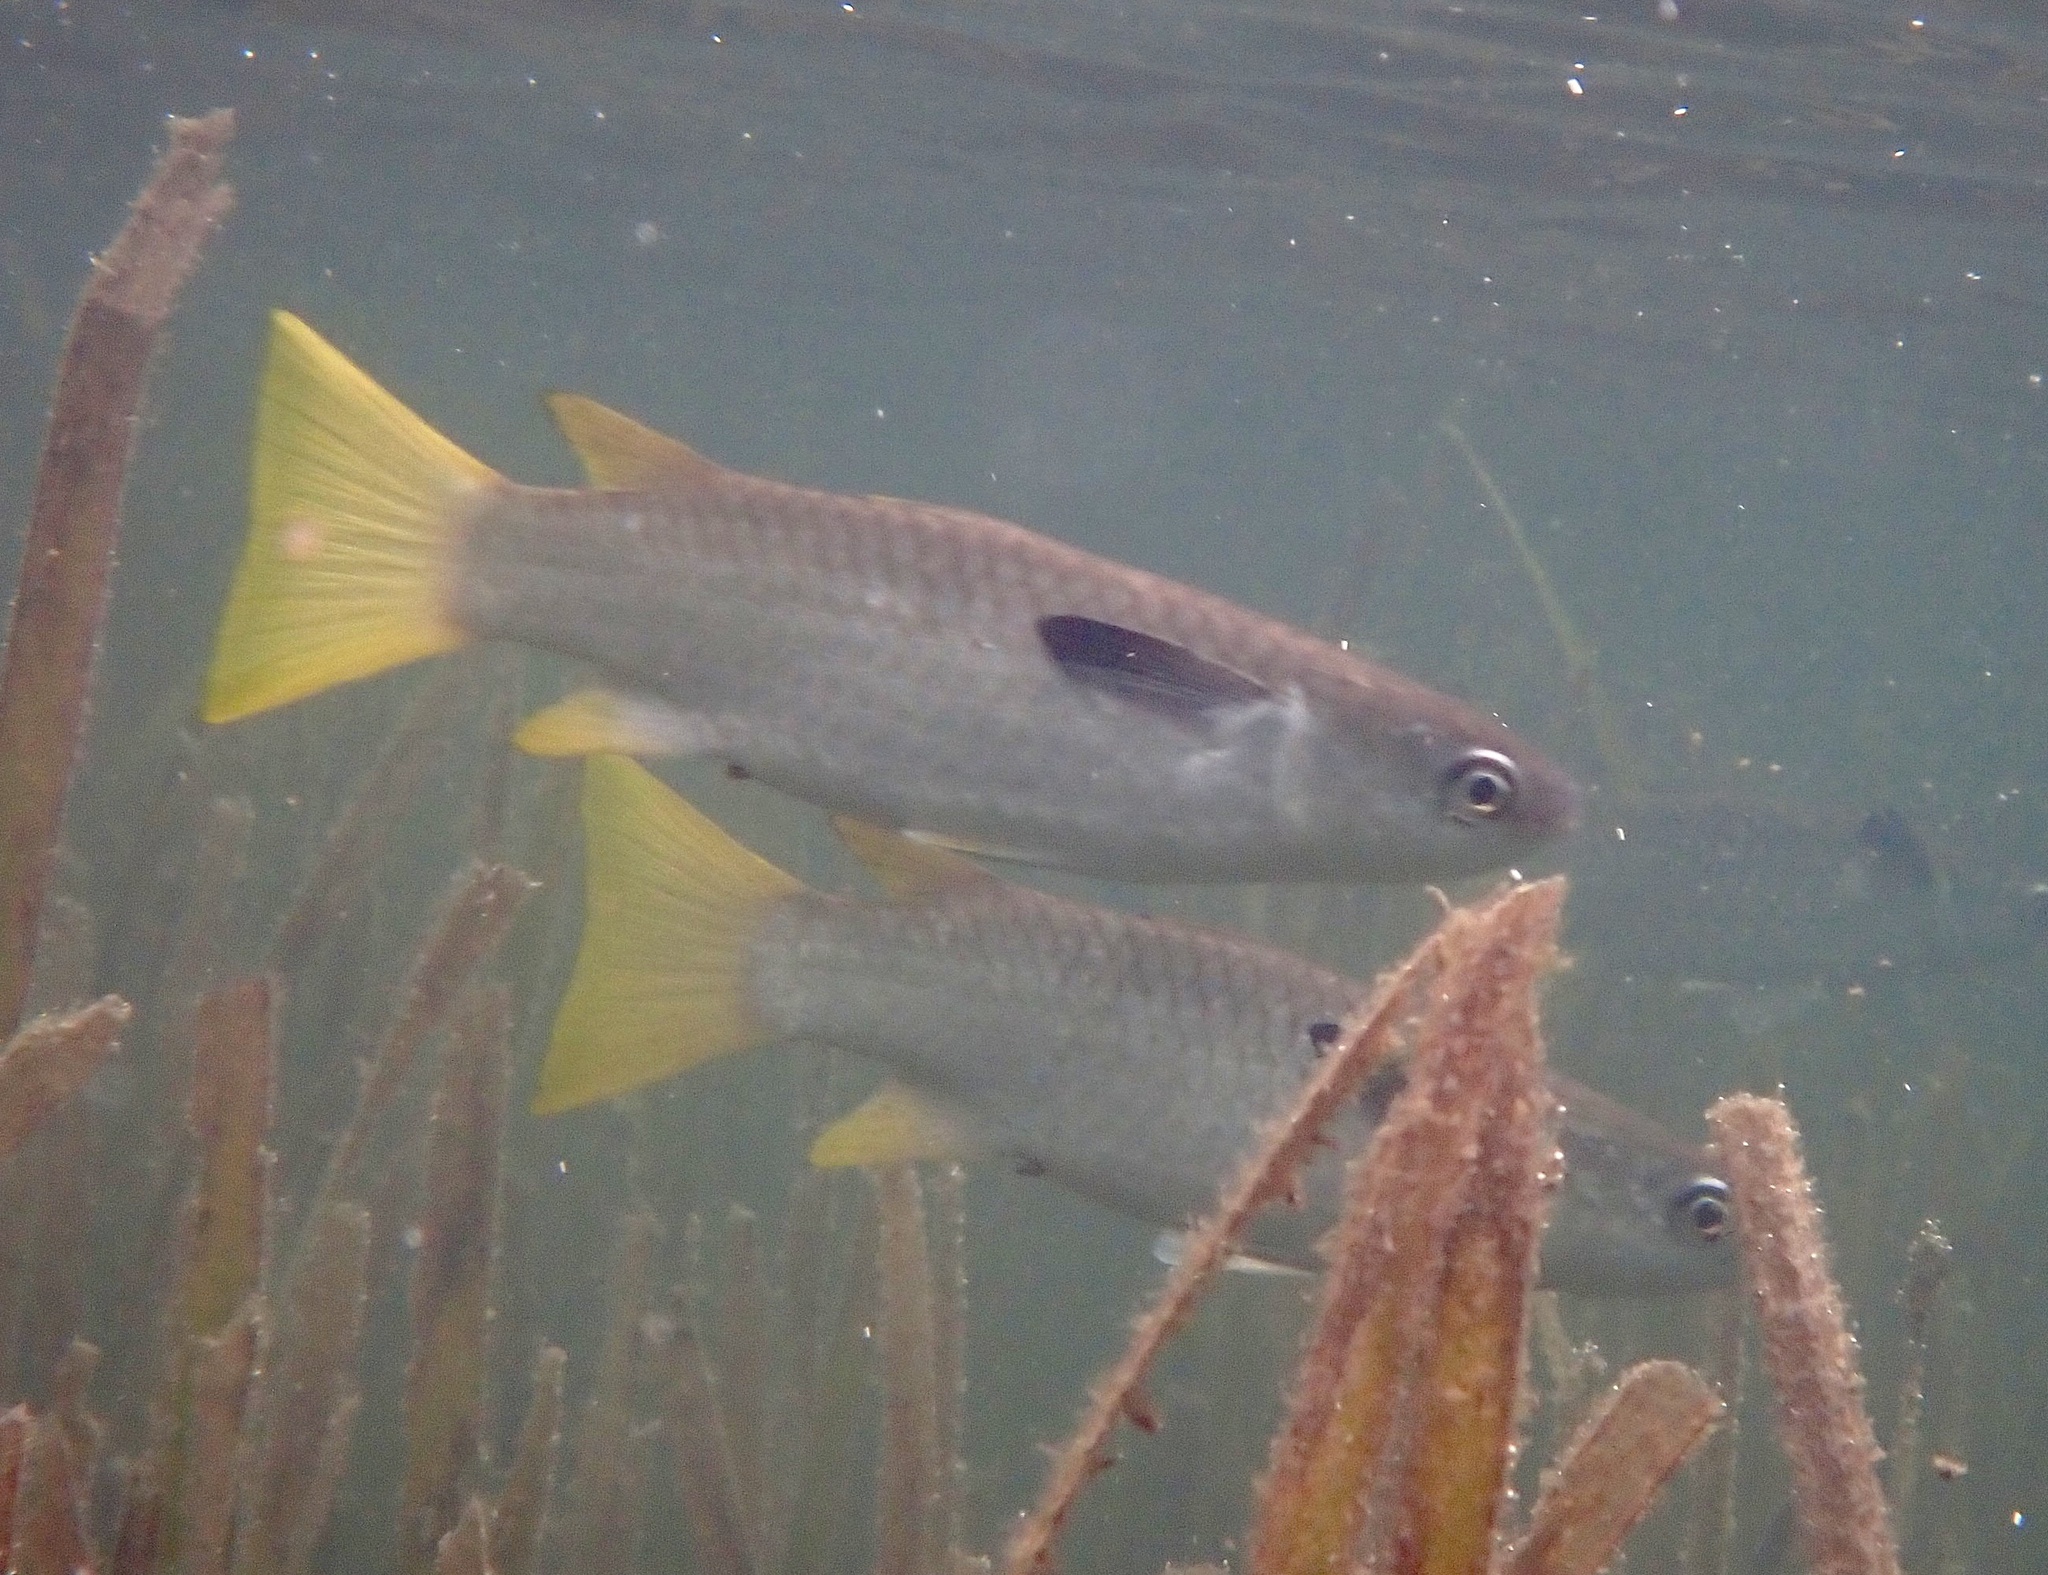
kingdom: Animalia
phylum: Chordata
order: Mugiliformes
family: Mugilidae
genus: Ellochelon
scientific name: Ellochelon vaigiensis
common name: Squaretail mullet
